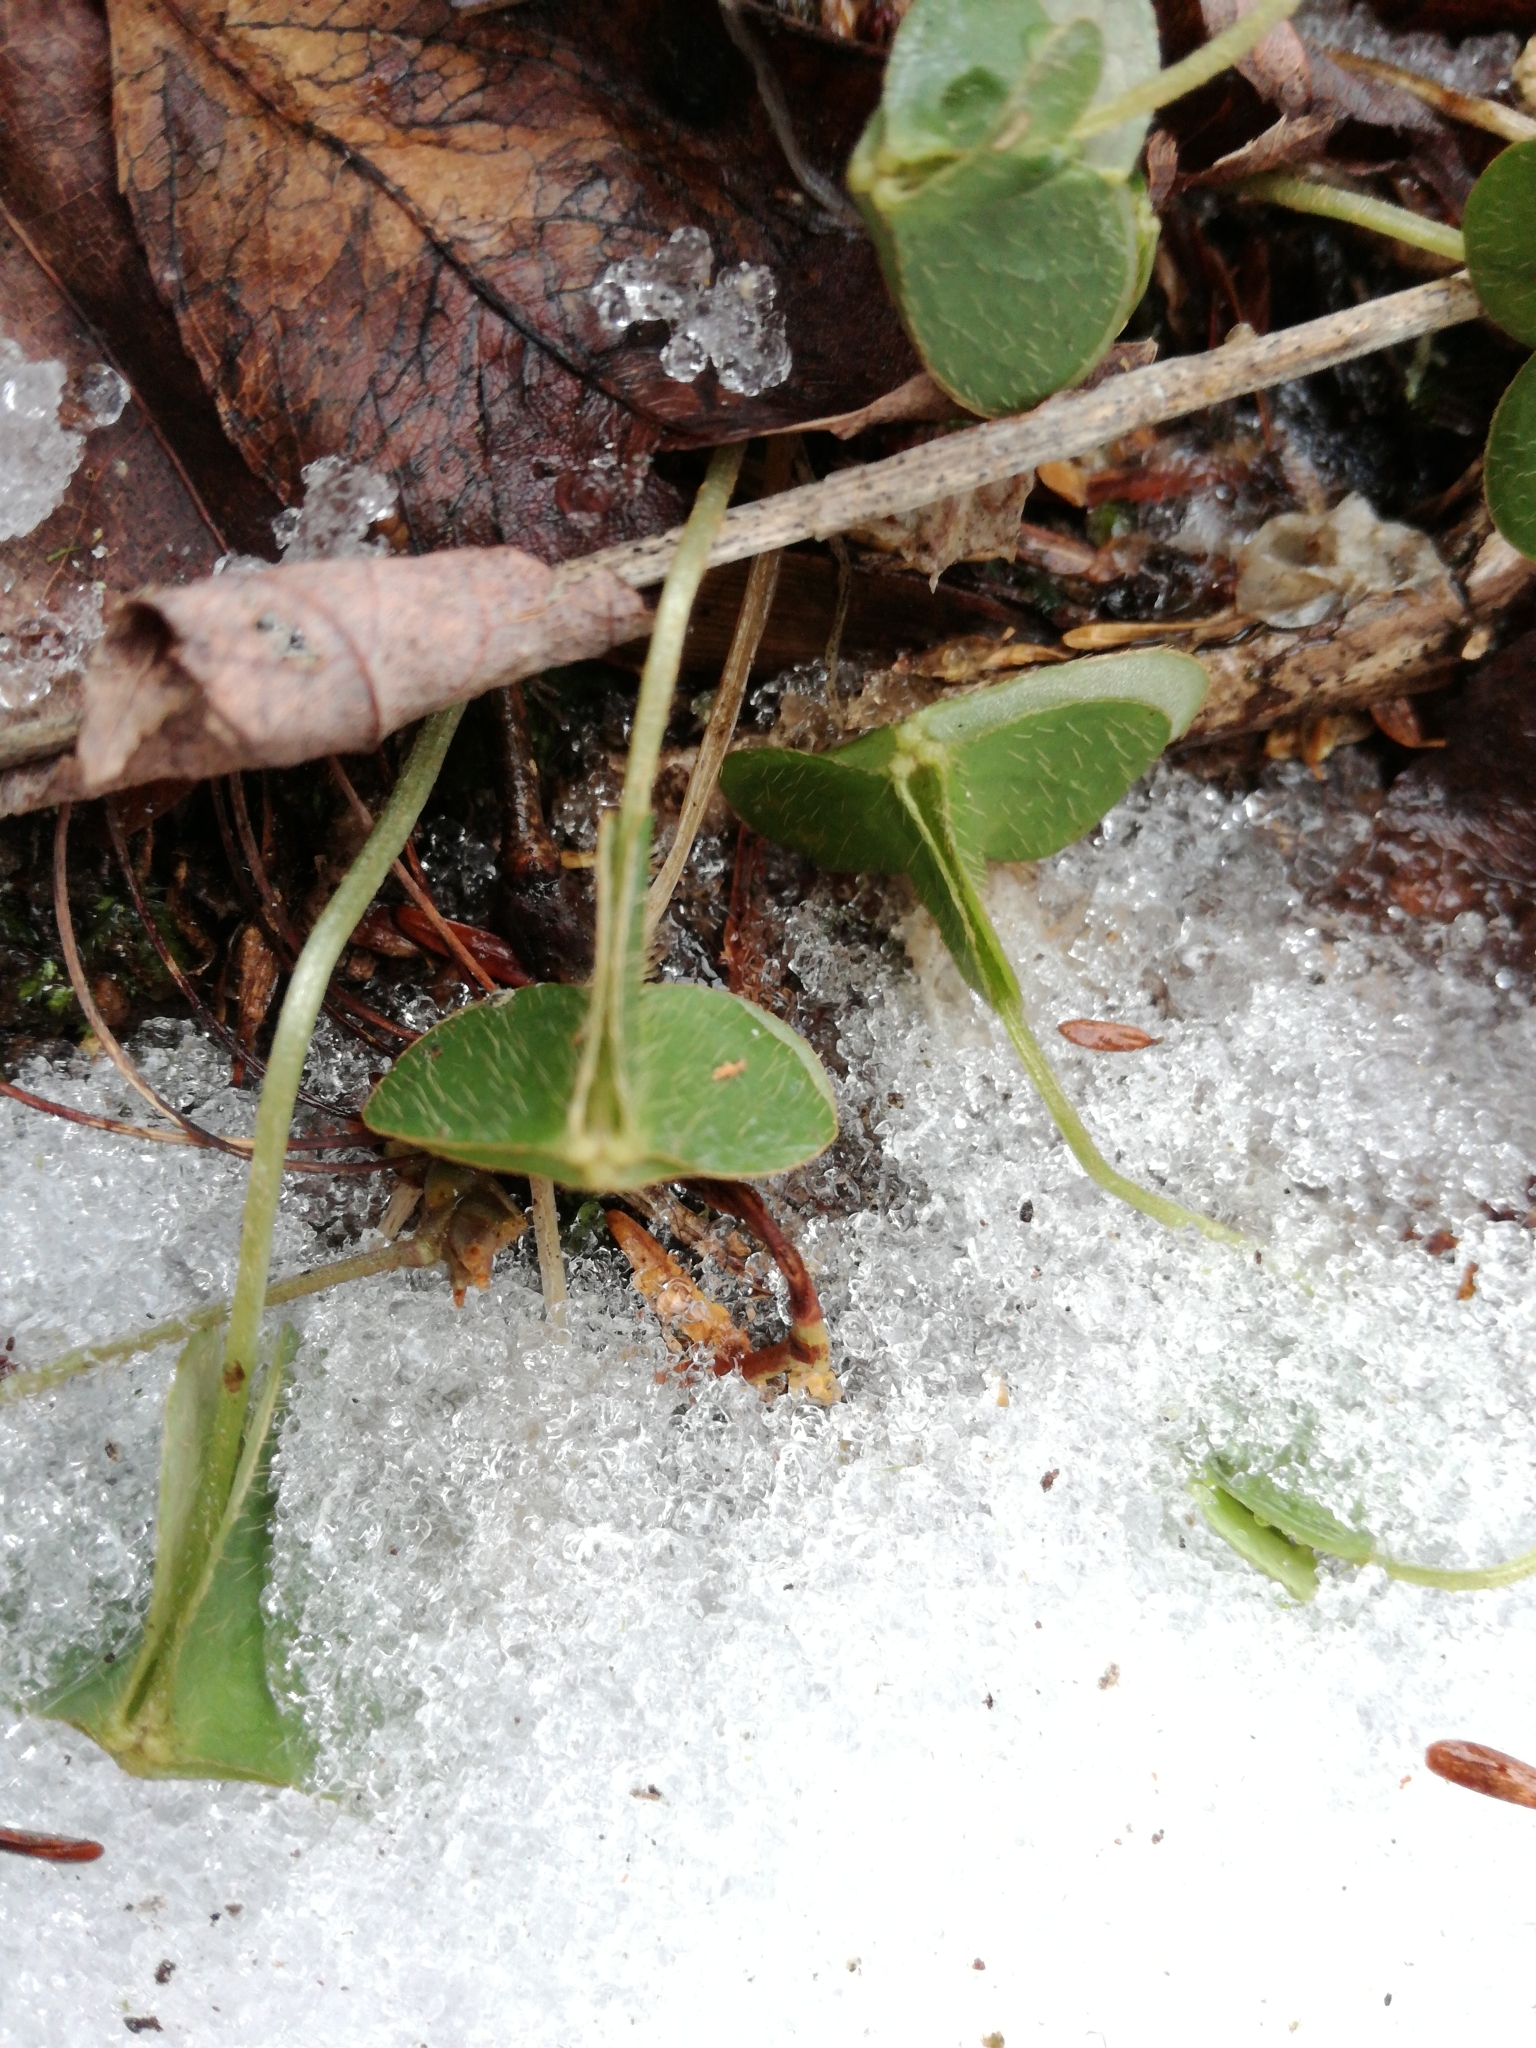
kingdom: Plantae
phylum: Tracheophyta
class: Magnoliopsida
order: Oxalidales
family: Oxalidaceae
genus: Oxalis
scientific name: Oxalis montana
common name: American wood-sorrel
